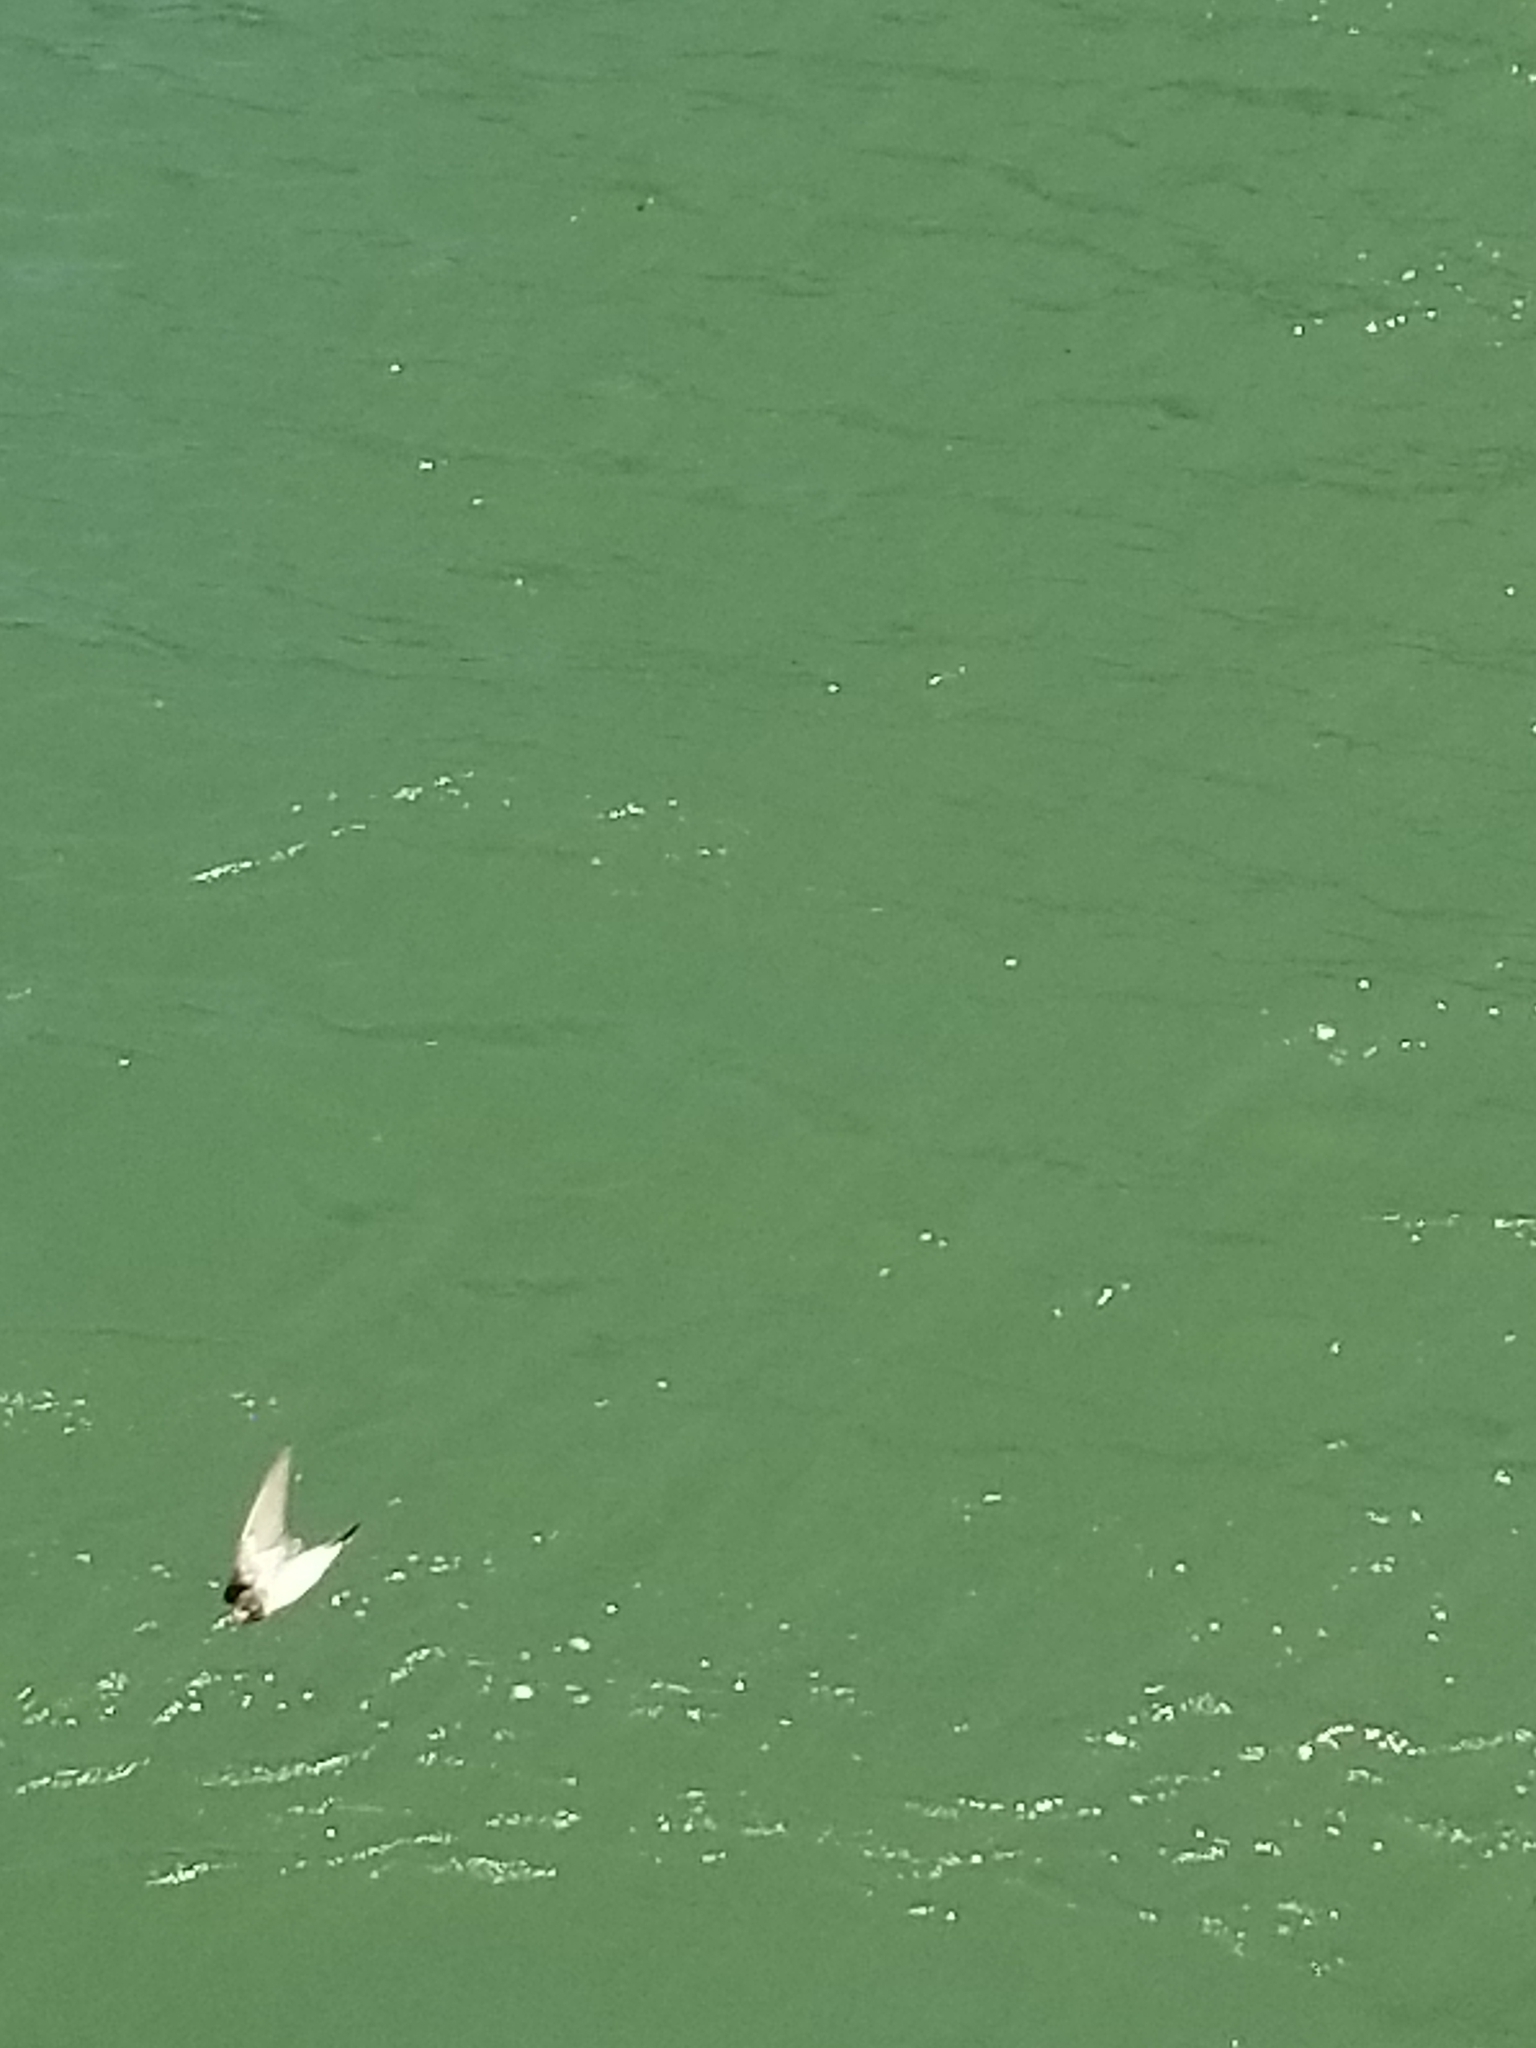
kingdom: Animalia
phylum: Chordata
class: Aves
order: Passeriformes
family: Hirundinidae
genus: Petrochelidon
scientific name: Petrochelidon pyrrhonota
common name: American cliff swallow
